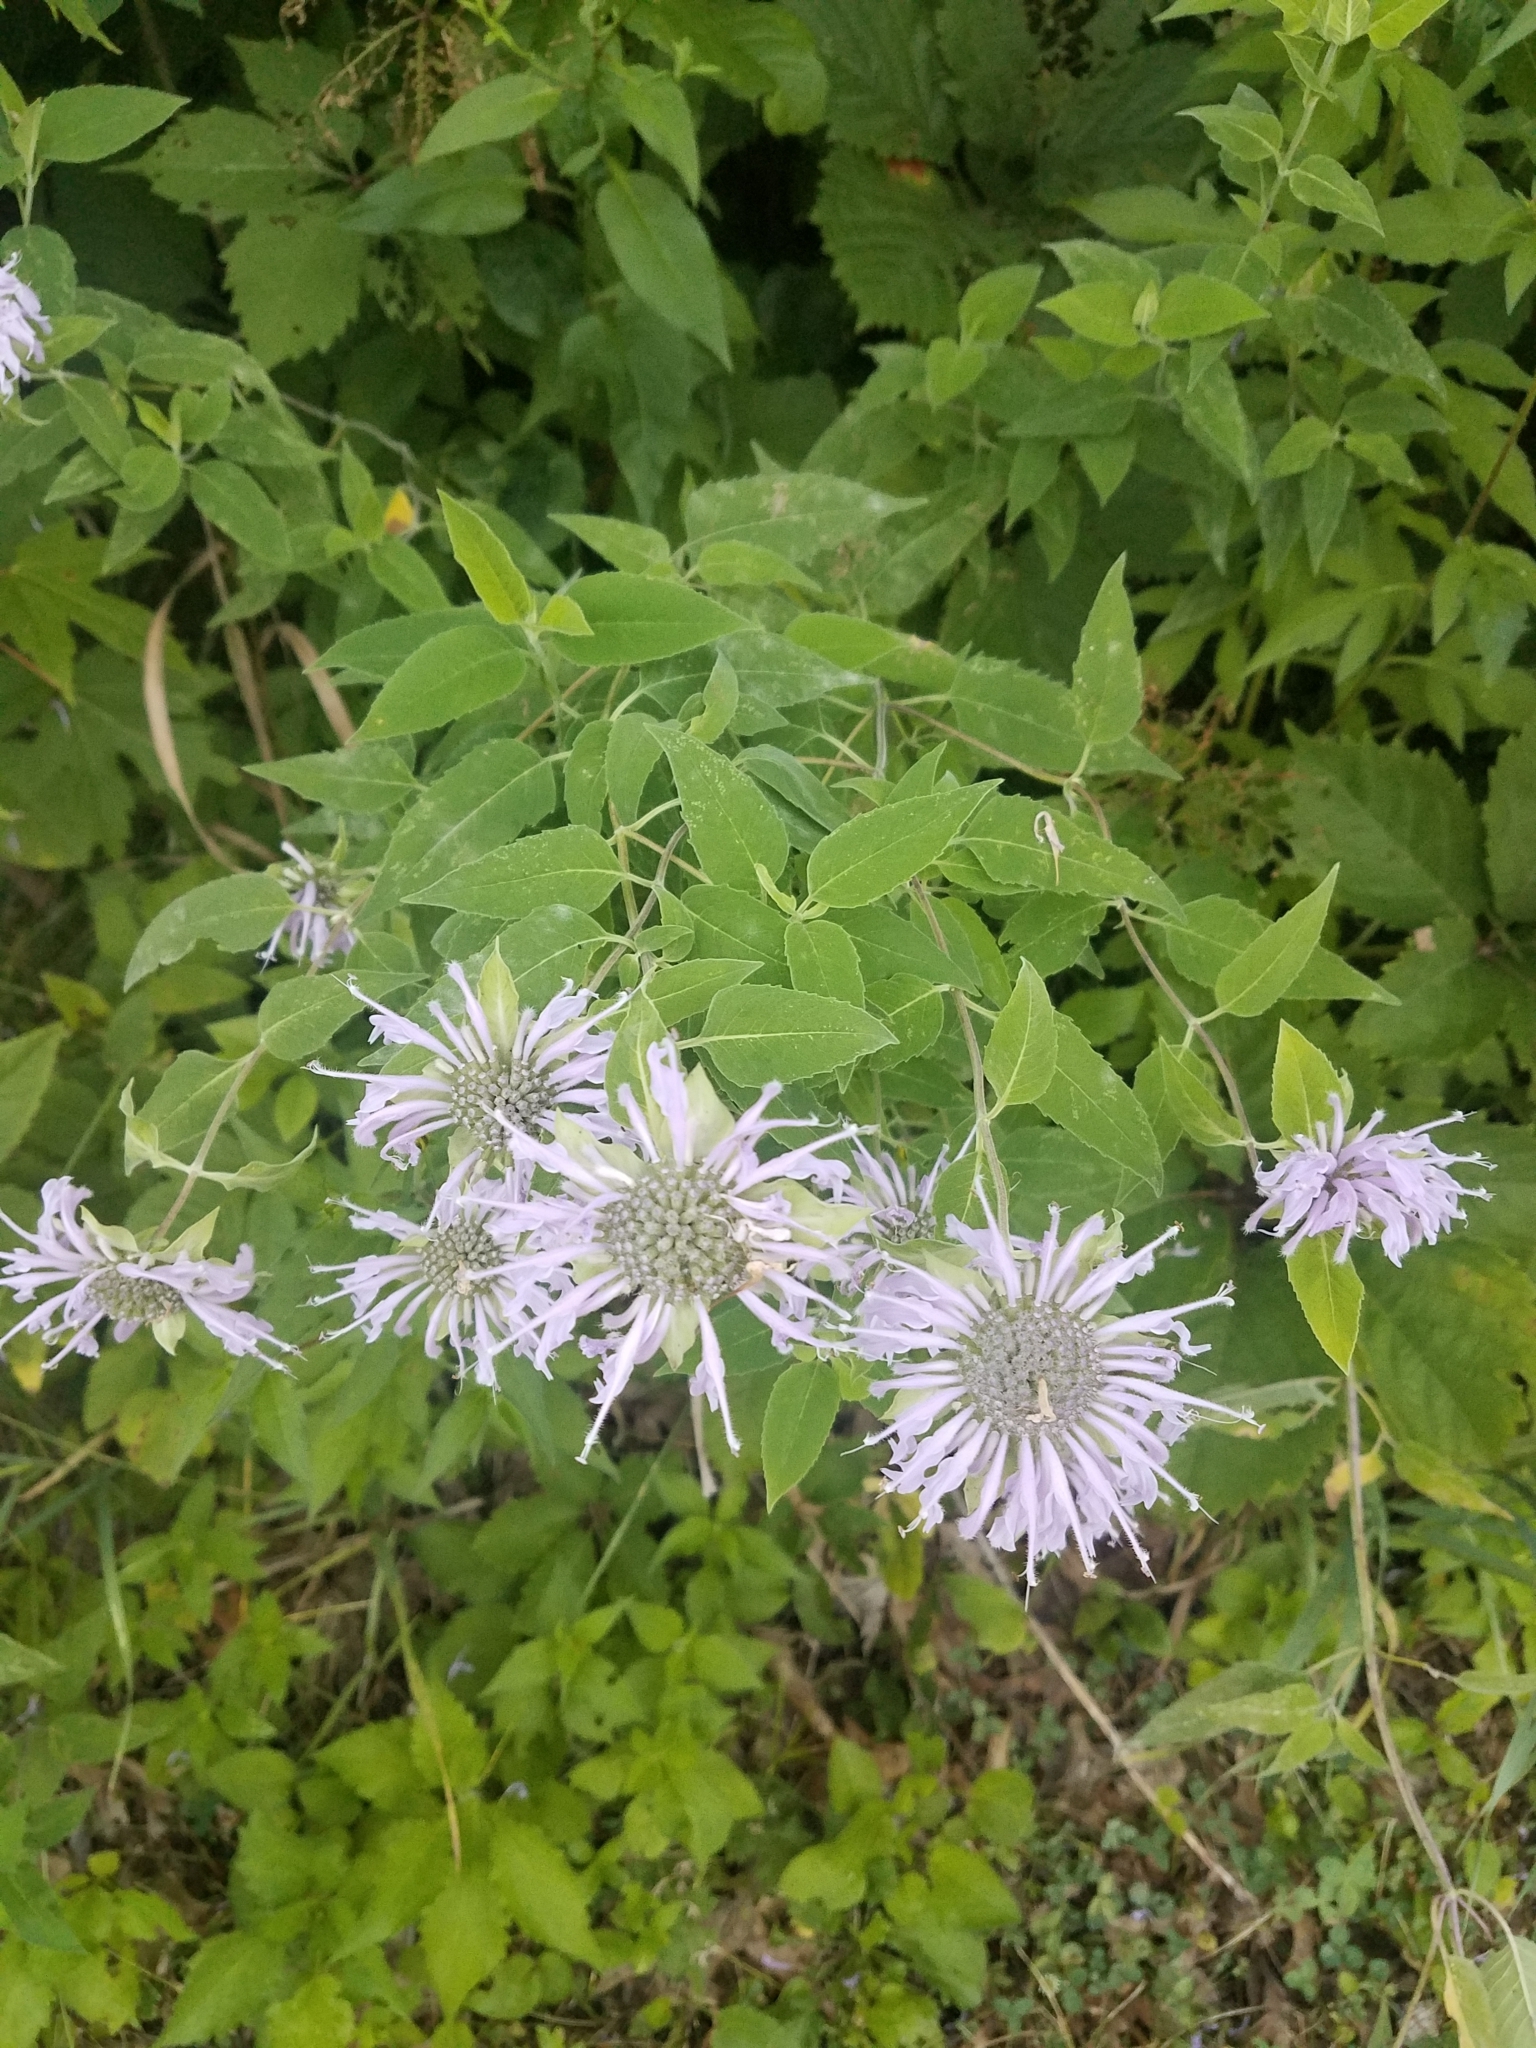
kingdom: Plantae
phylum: Tracheophyta
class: Magnoliopsida
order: Lamiales
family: Lamiaceae
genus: Monarda
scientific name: Monarda fistulosa
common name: Purple beebalm
